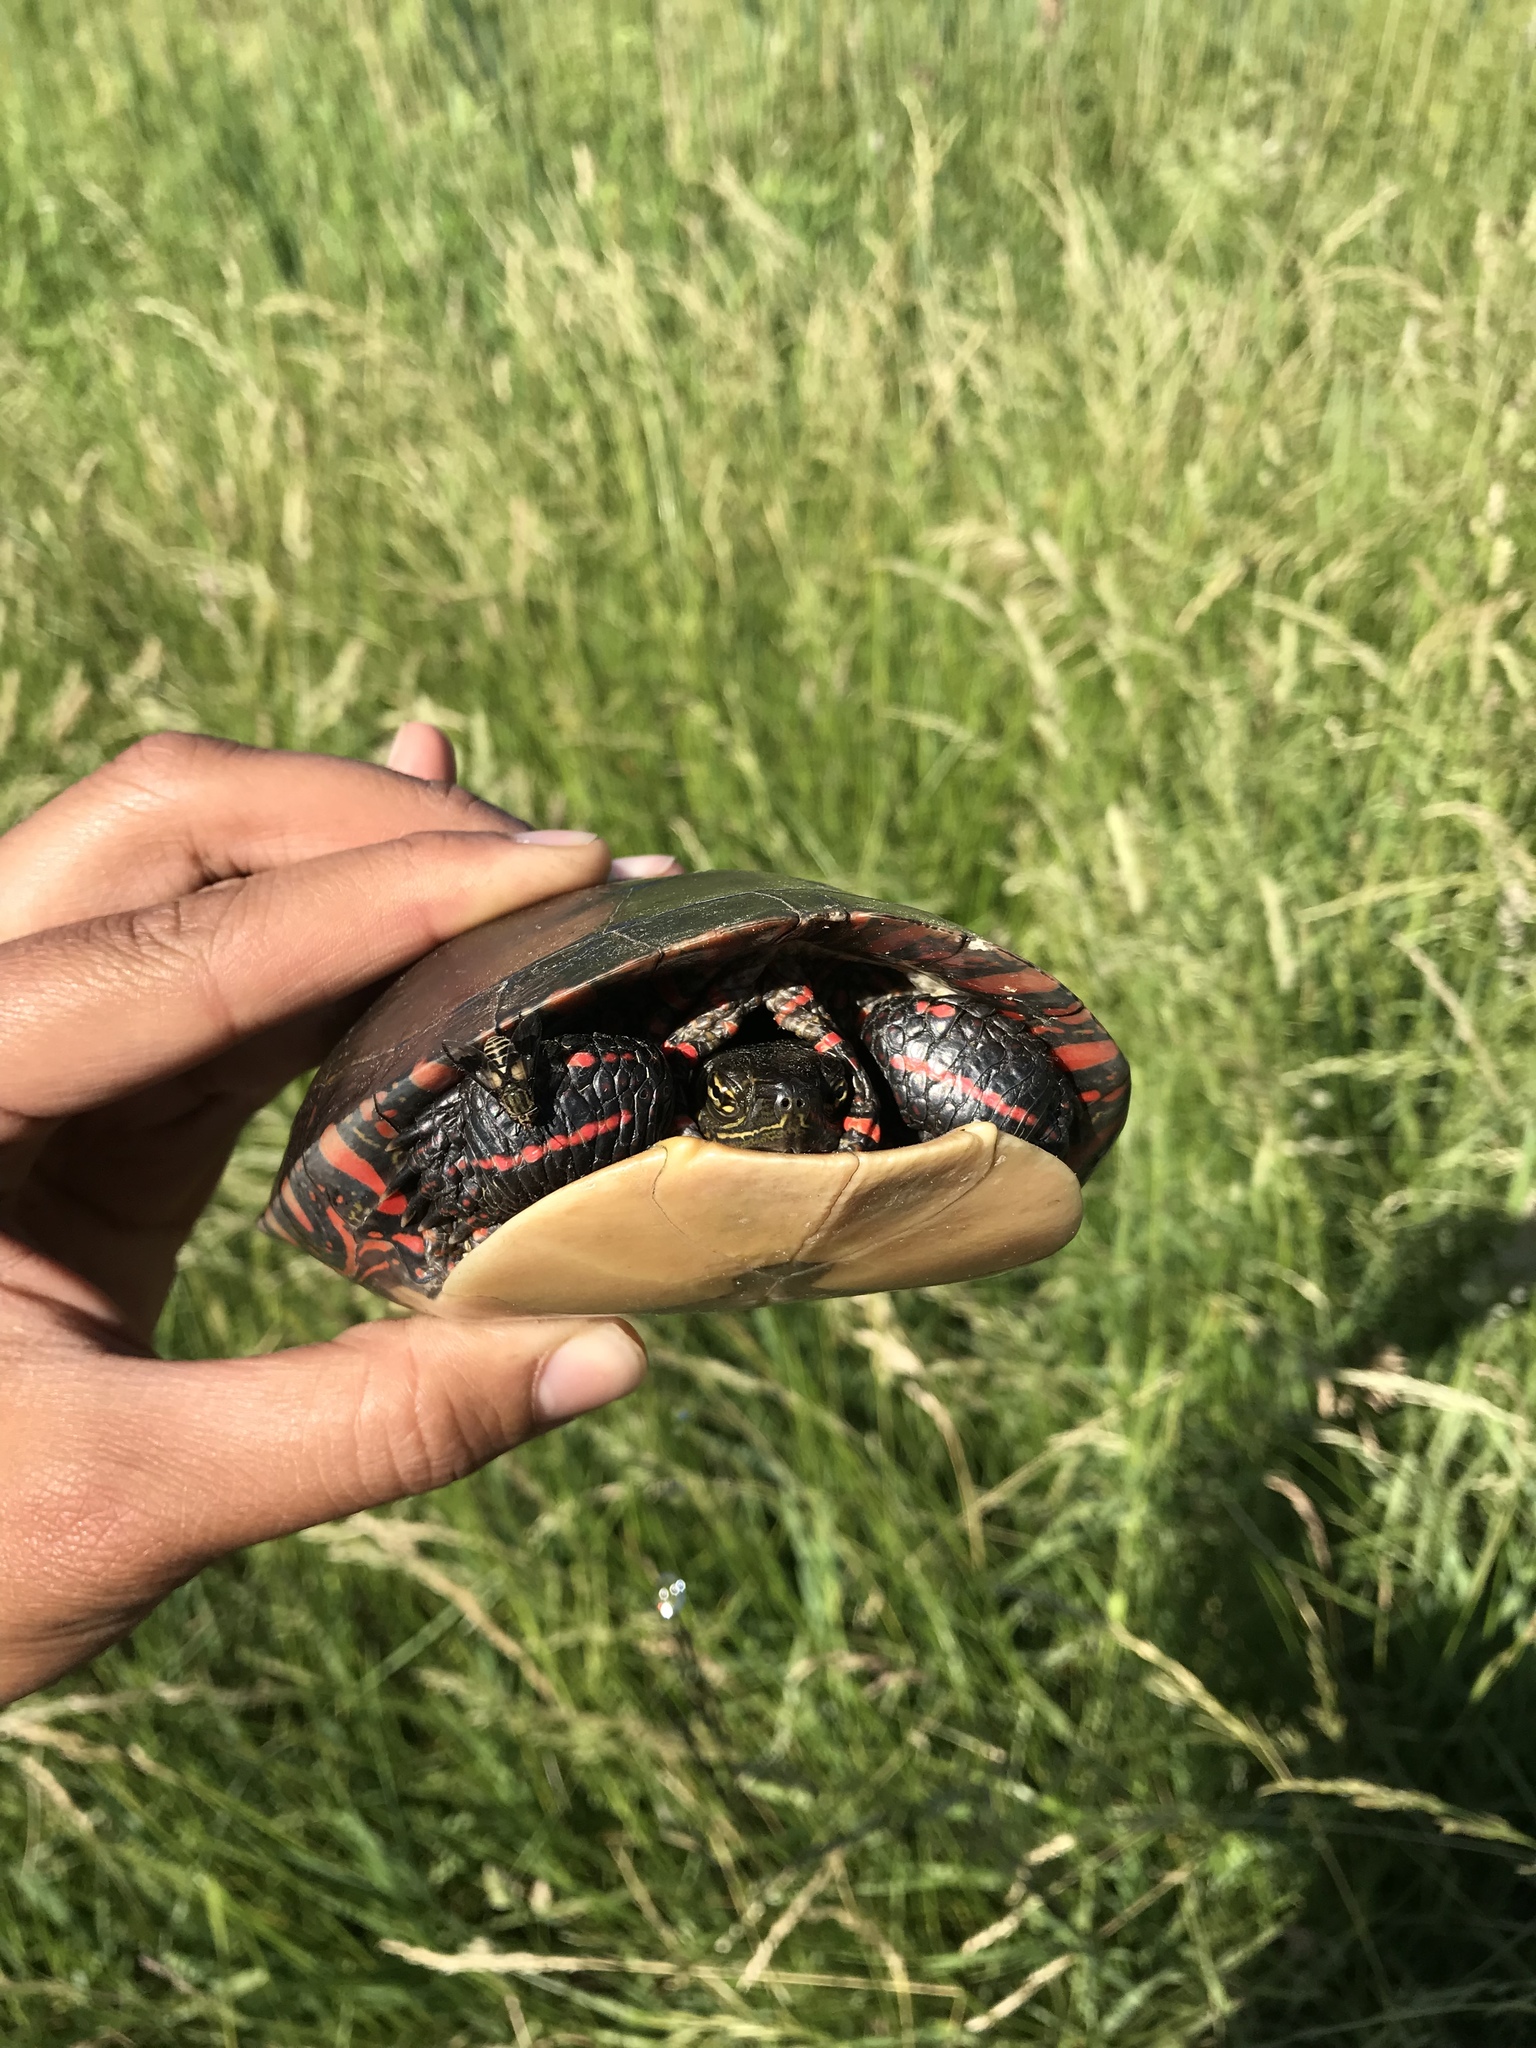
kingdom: Animalia
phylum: Chordata
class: Testudines
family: Emydidae
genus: Chrysemys
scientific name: Chrysemys picta
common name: Painted turtle
